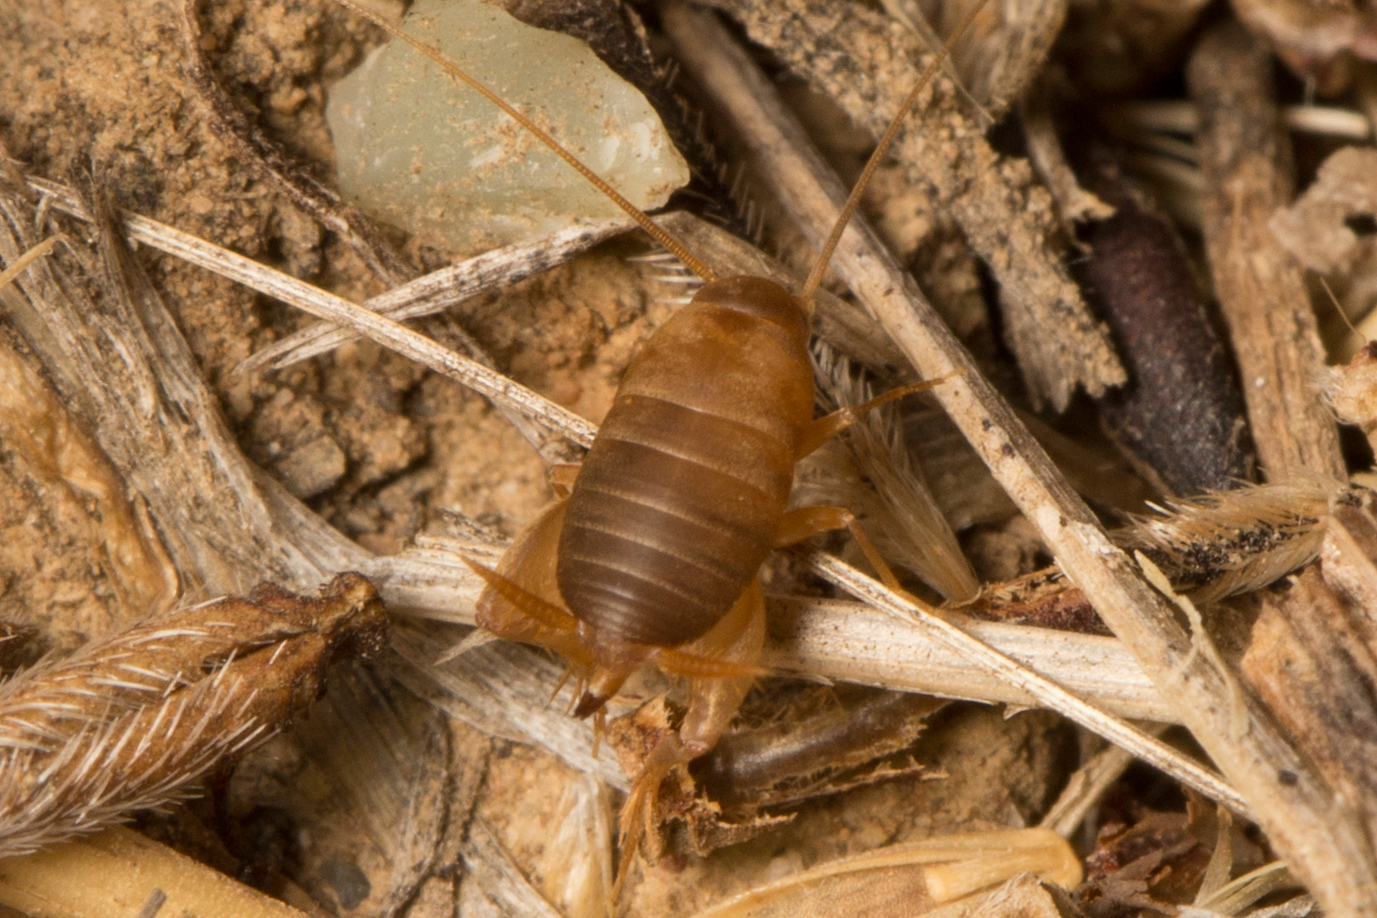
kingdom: Animalia
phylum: Arthropoda
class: Insecta
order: Orthoptera
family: Myrmecophilidae
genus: Myrmecophilus
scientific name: Myrmecophilus oregonensis
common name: Oregon ant cricket
